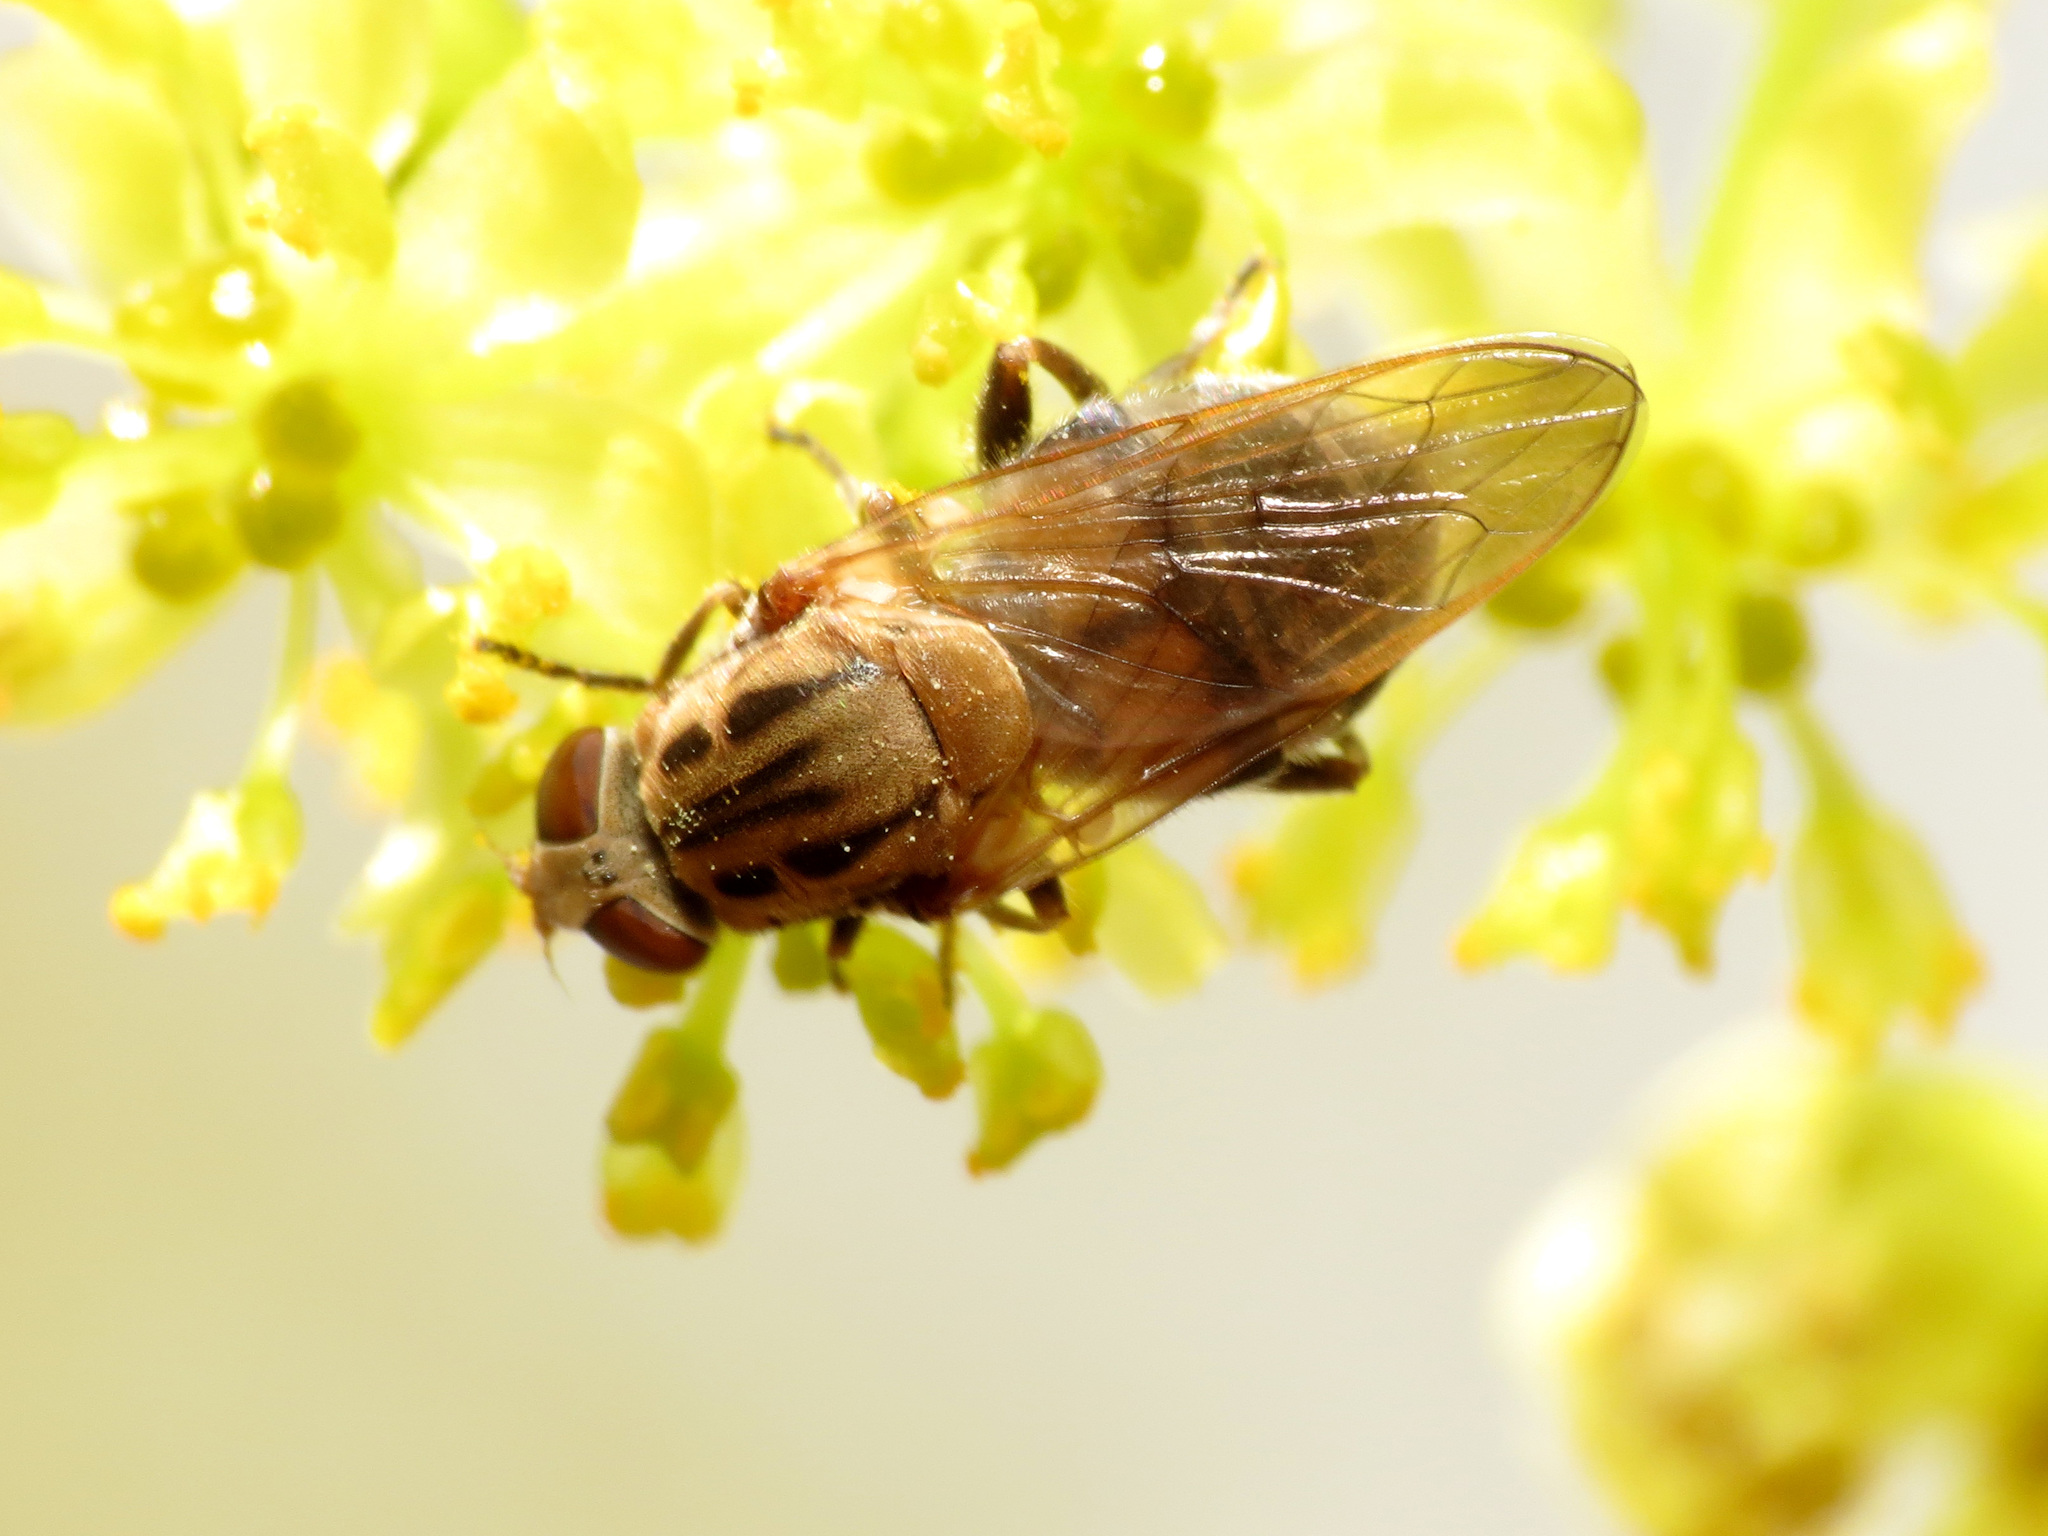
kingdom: Animalia
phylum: Arthropoda
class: Insecta
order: Diptera
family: Syrphidae
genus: Brachyopa
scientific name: Brachyopa vacua
